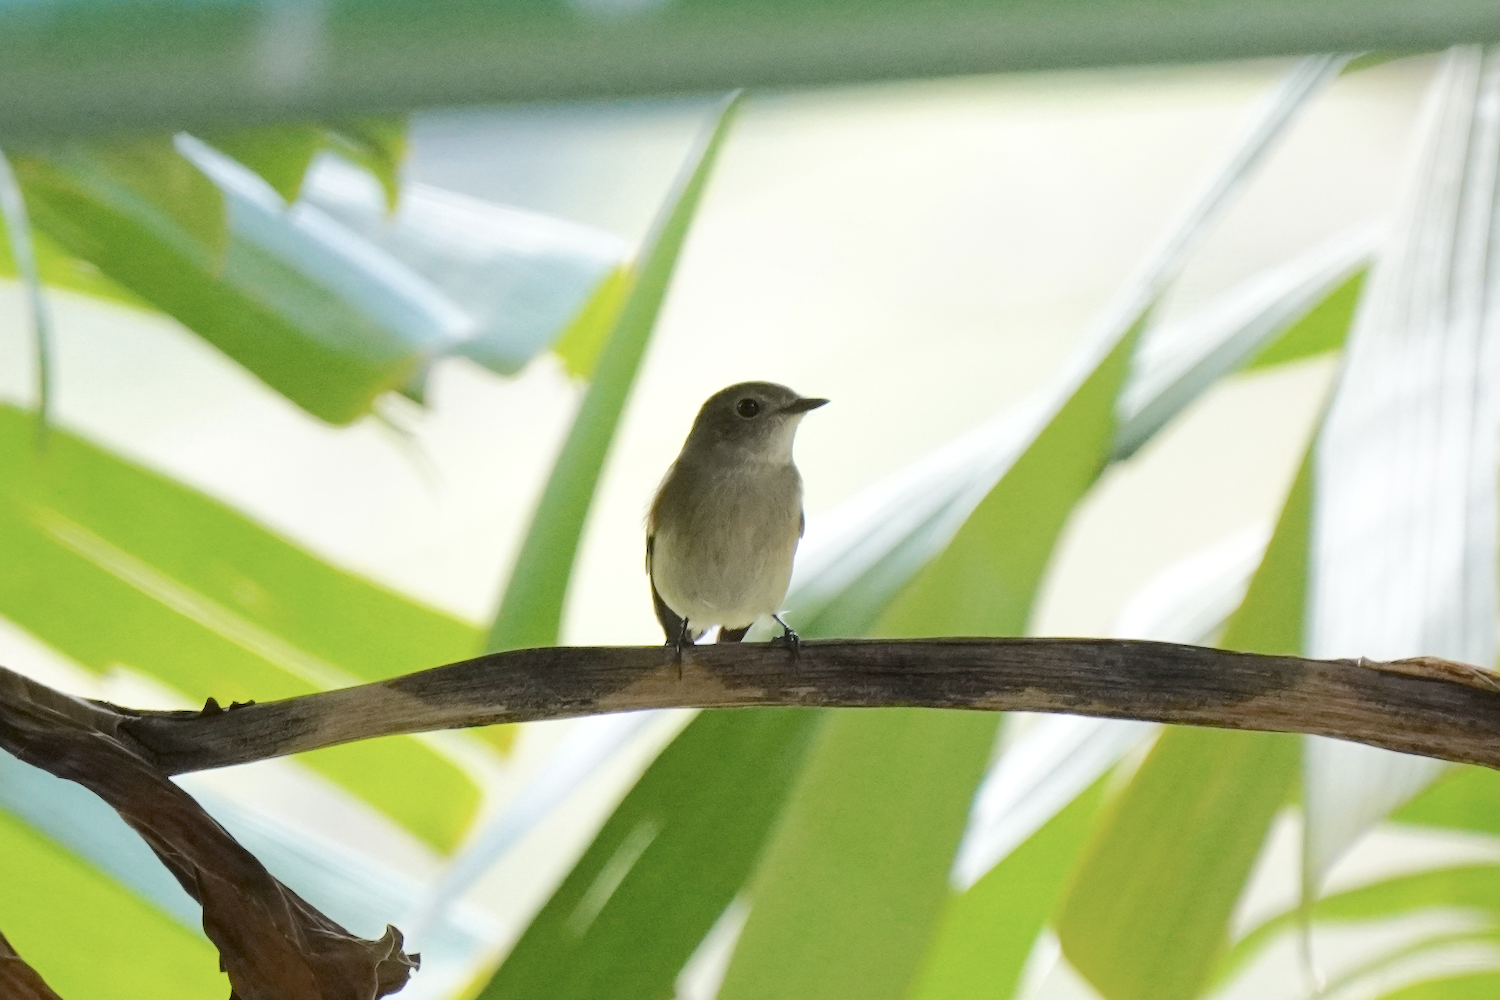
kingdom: Animalia
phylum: Chordata
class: Aves
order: Passeriformes
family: Muscicapidae
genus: Ficedula
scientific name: Ficedula albicilla
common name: Taiga flycatcher
